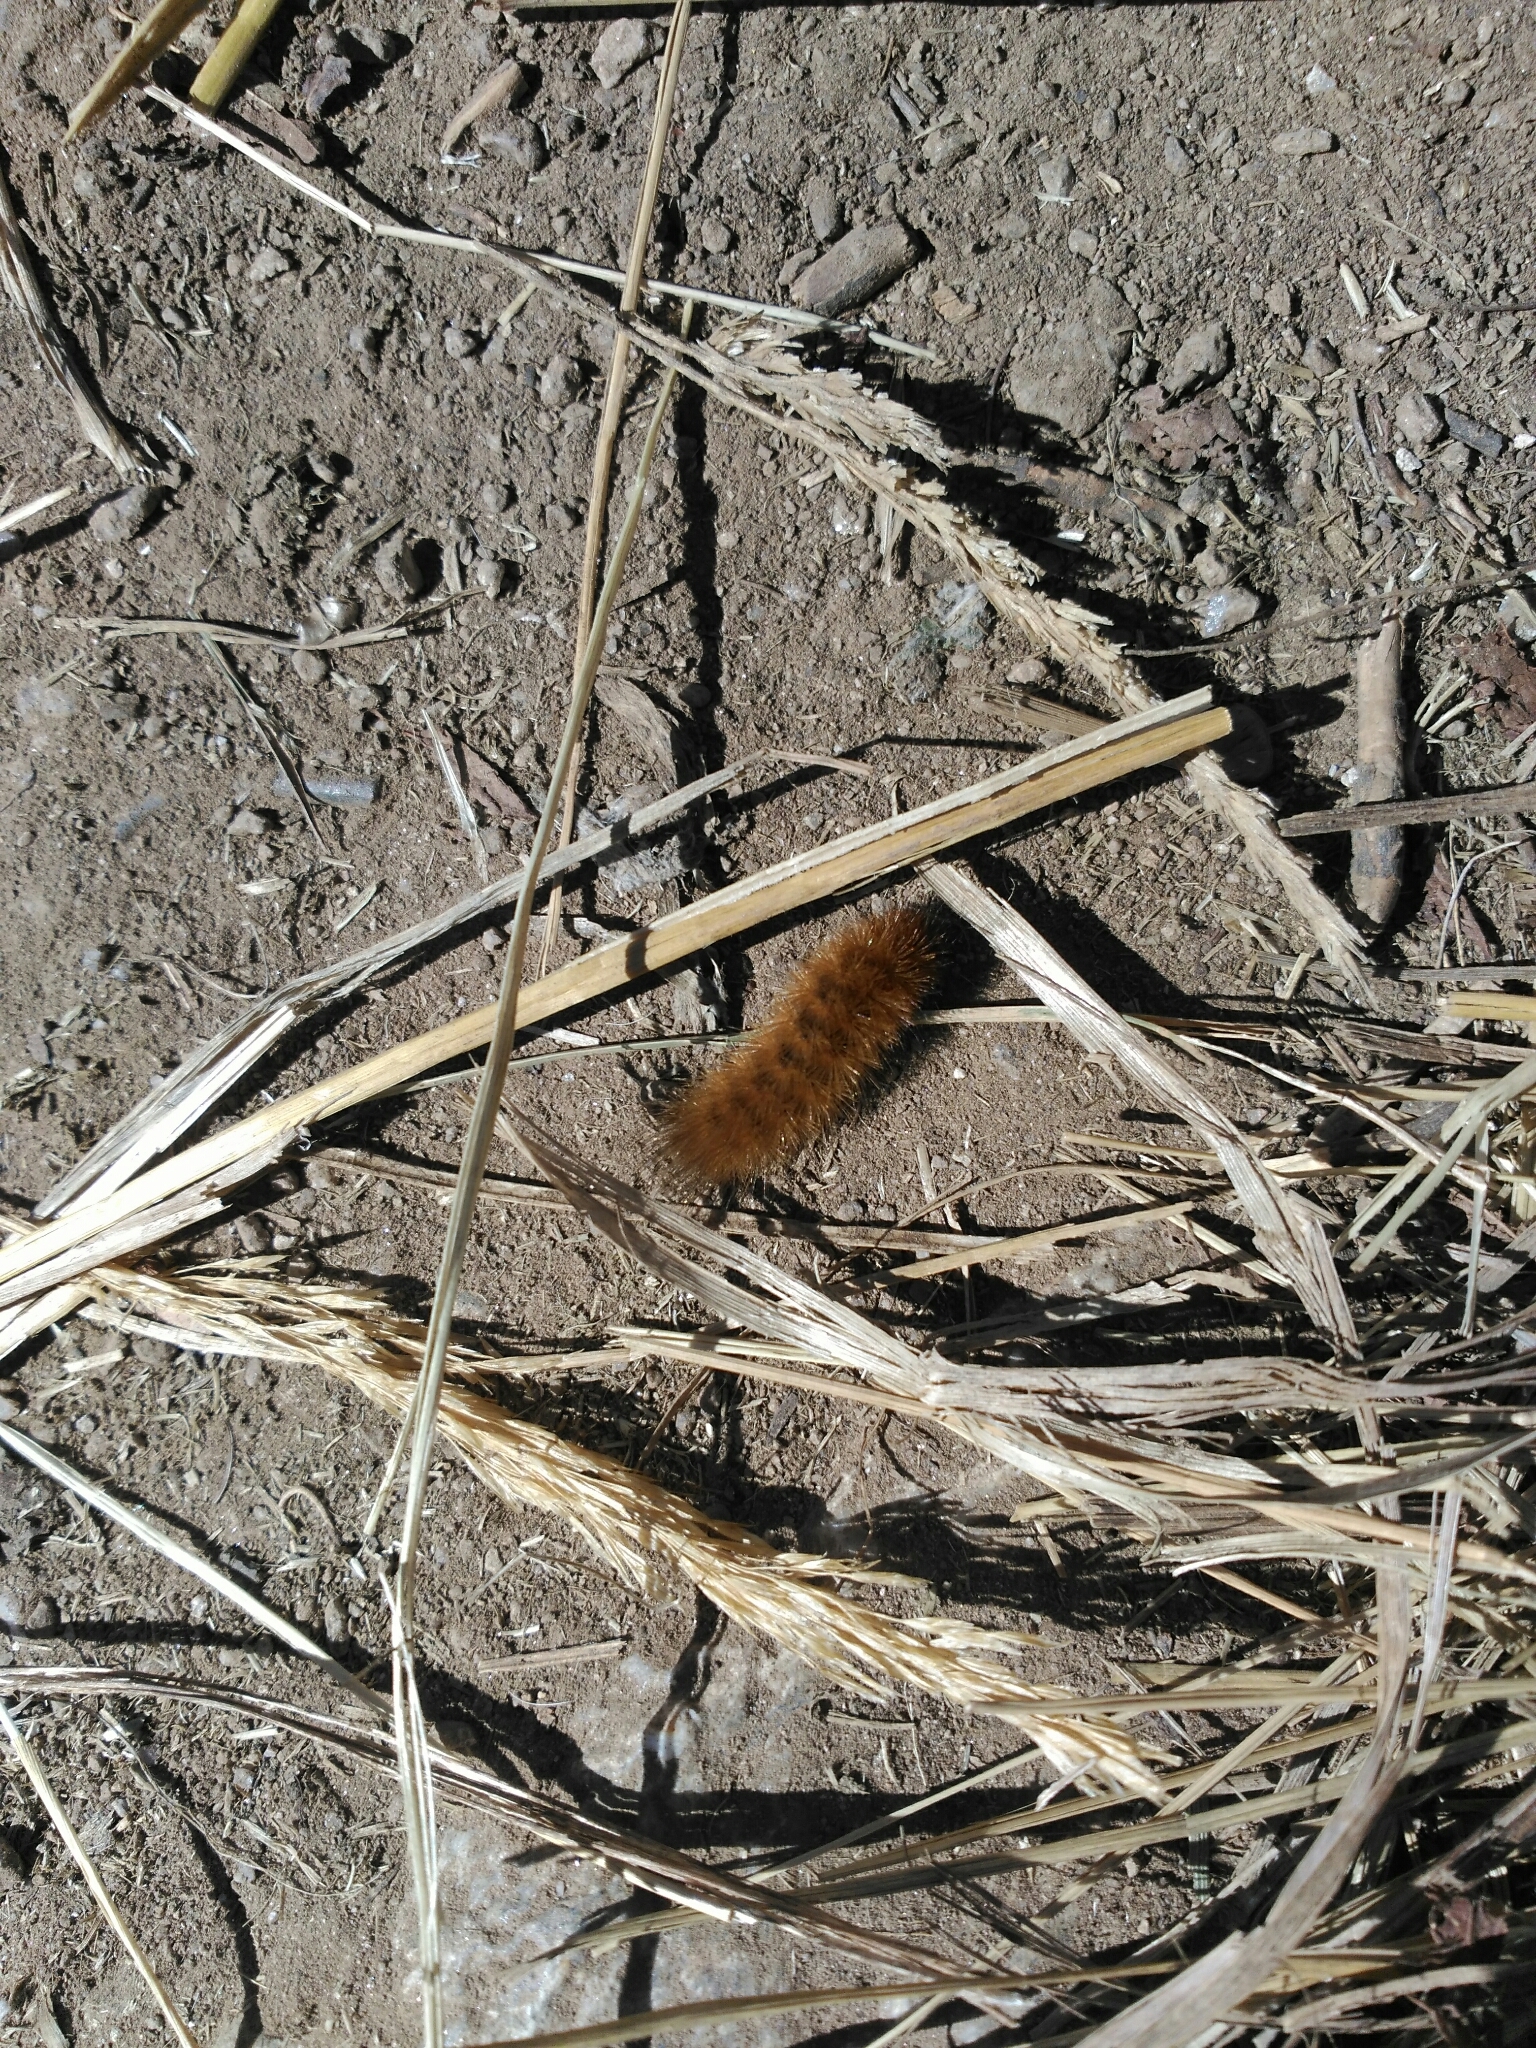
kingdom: Animalia
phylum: Arthropoda
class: Insecta
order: Lepidoptera
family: Erebidae
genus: Phragmatobia
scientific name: Phragmatobia fuliginosa
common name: Ruby tiger
